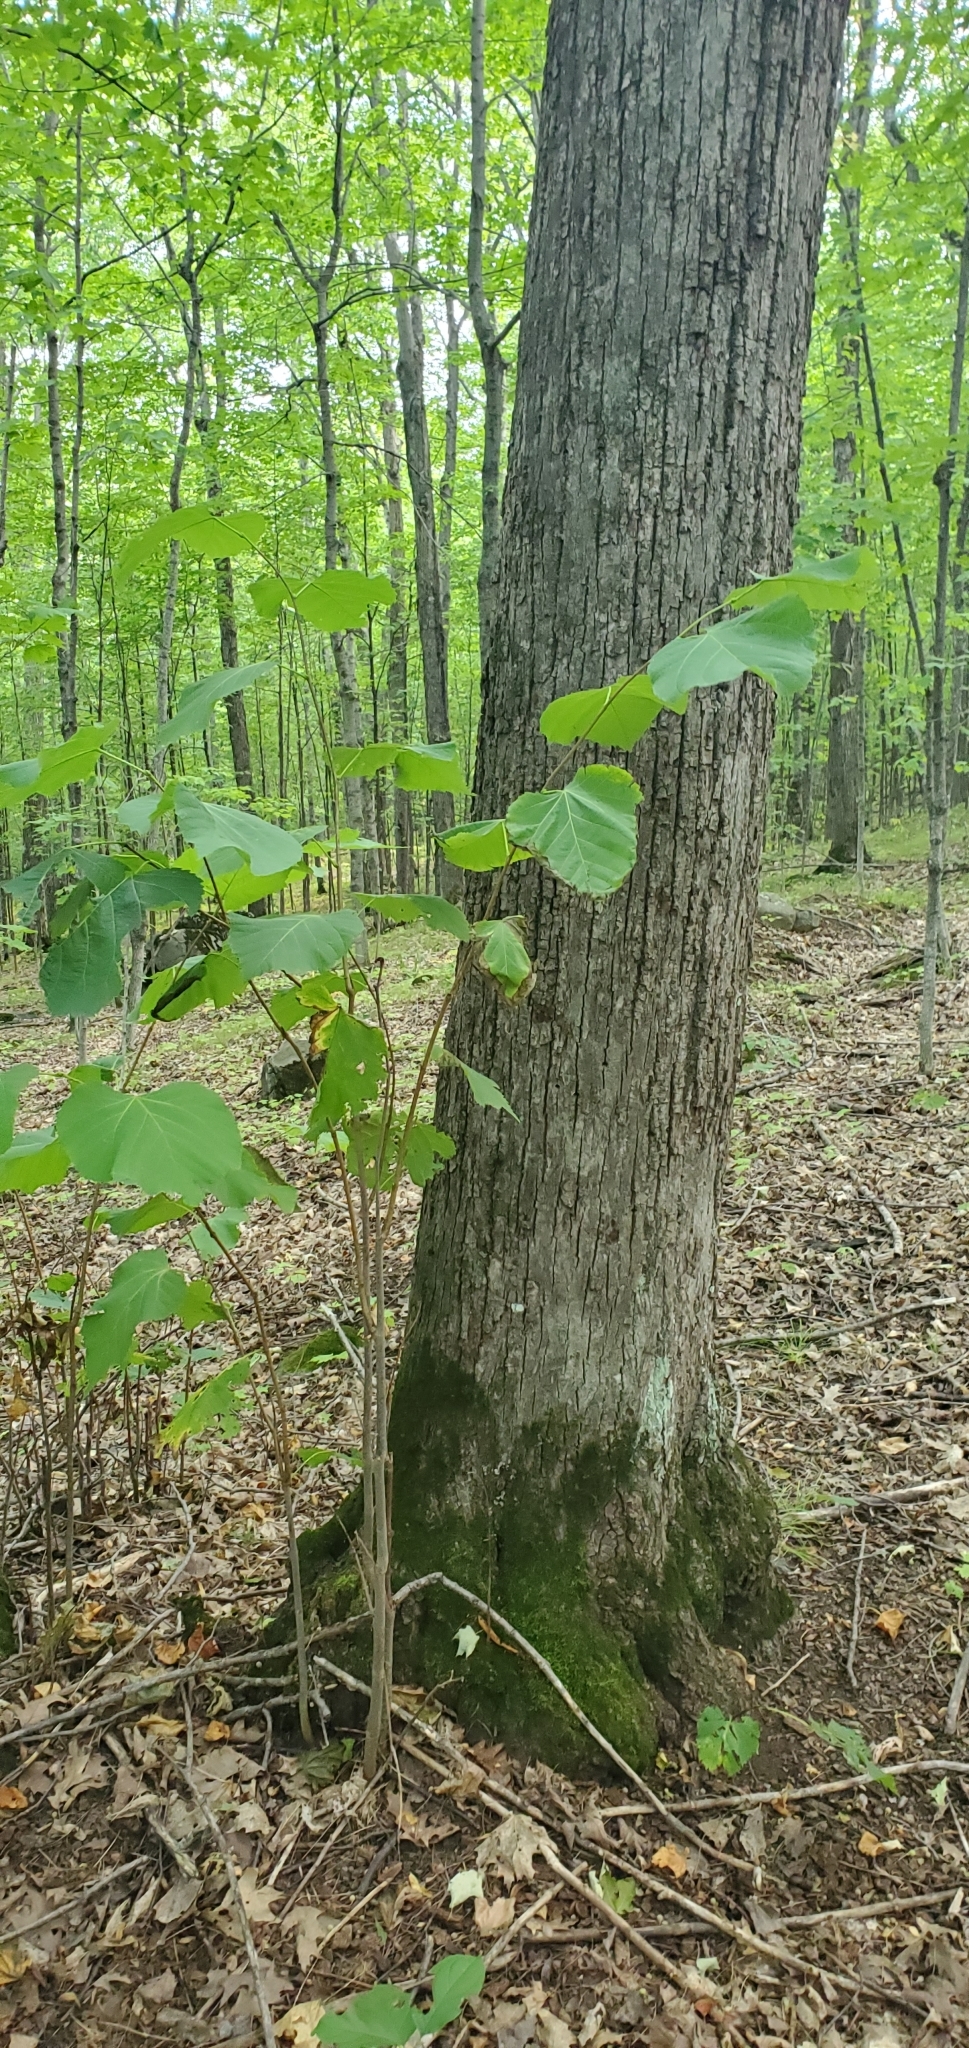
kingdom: Plantae
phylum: Tracheophyta
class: Magnoliopsida
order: Malvales
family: Malvaceae
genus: Tilia
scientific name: Tilia americana
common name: Basswood
